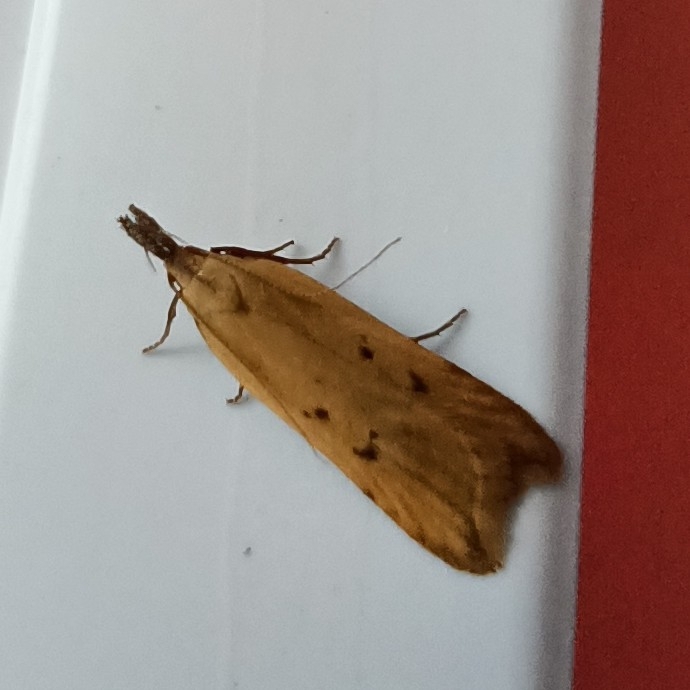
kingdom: Animalia
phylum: Arthropoda
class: Insecta
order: Lepidoptera
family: Gelechiidae
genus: Dichomeris
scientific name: Dichomeris limosellus
